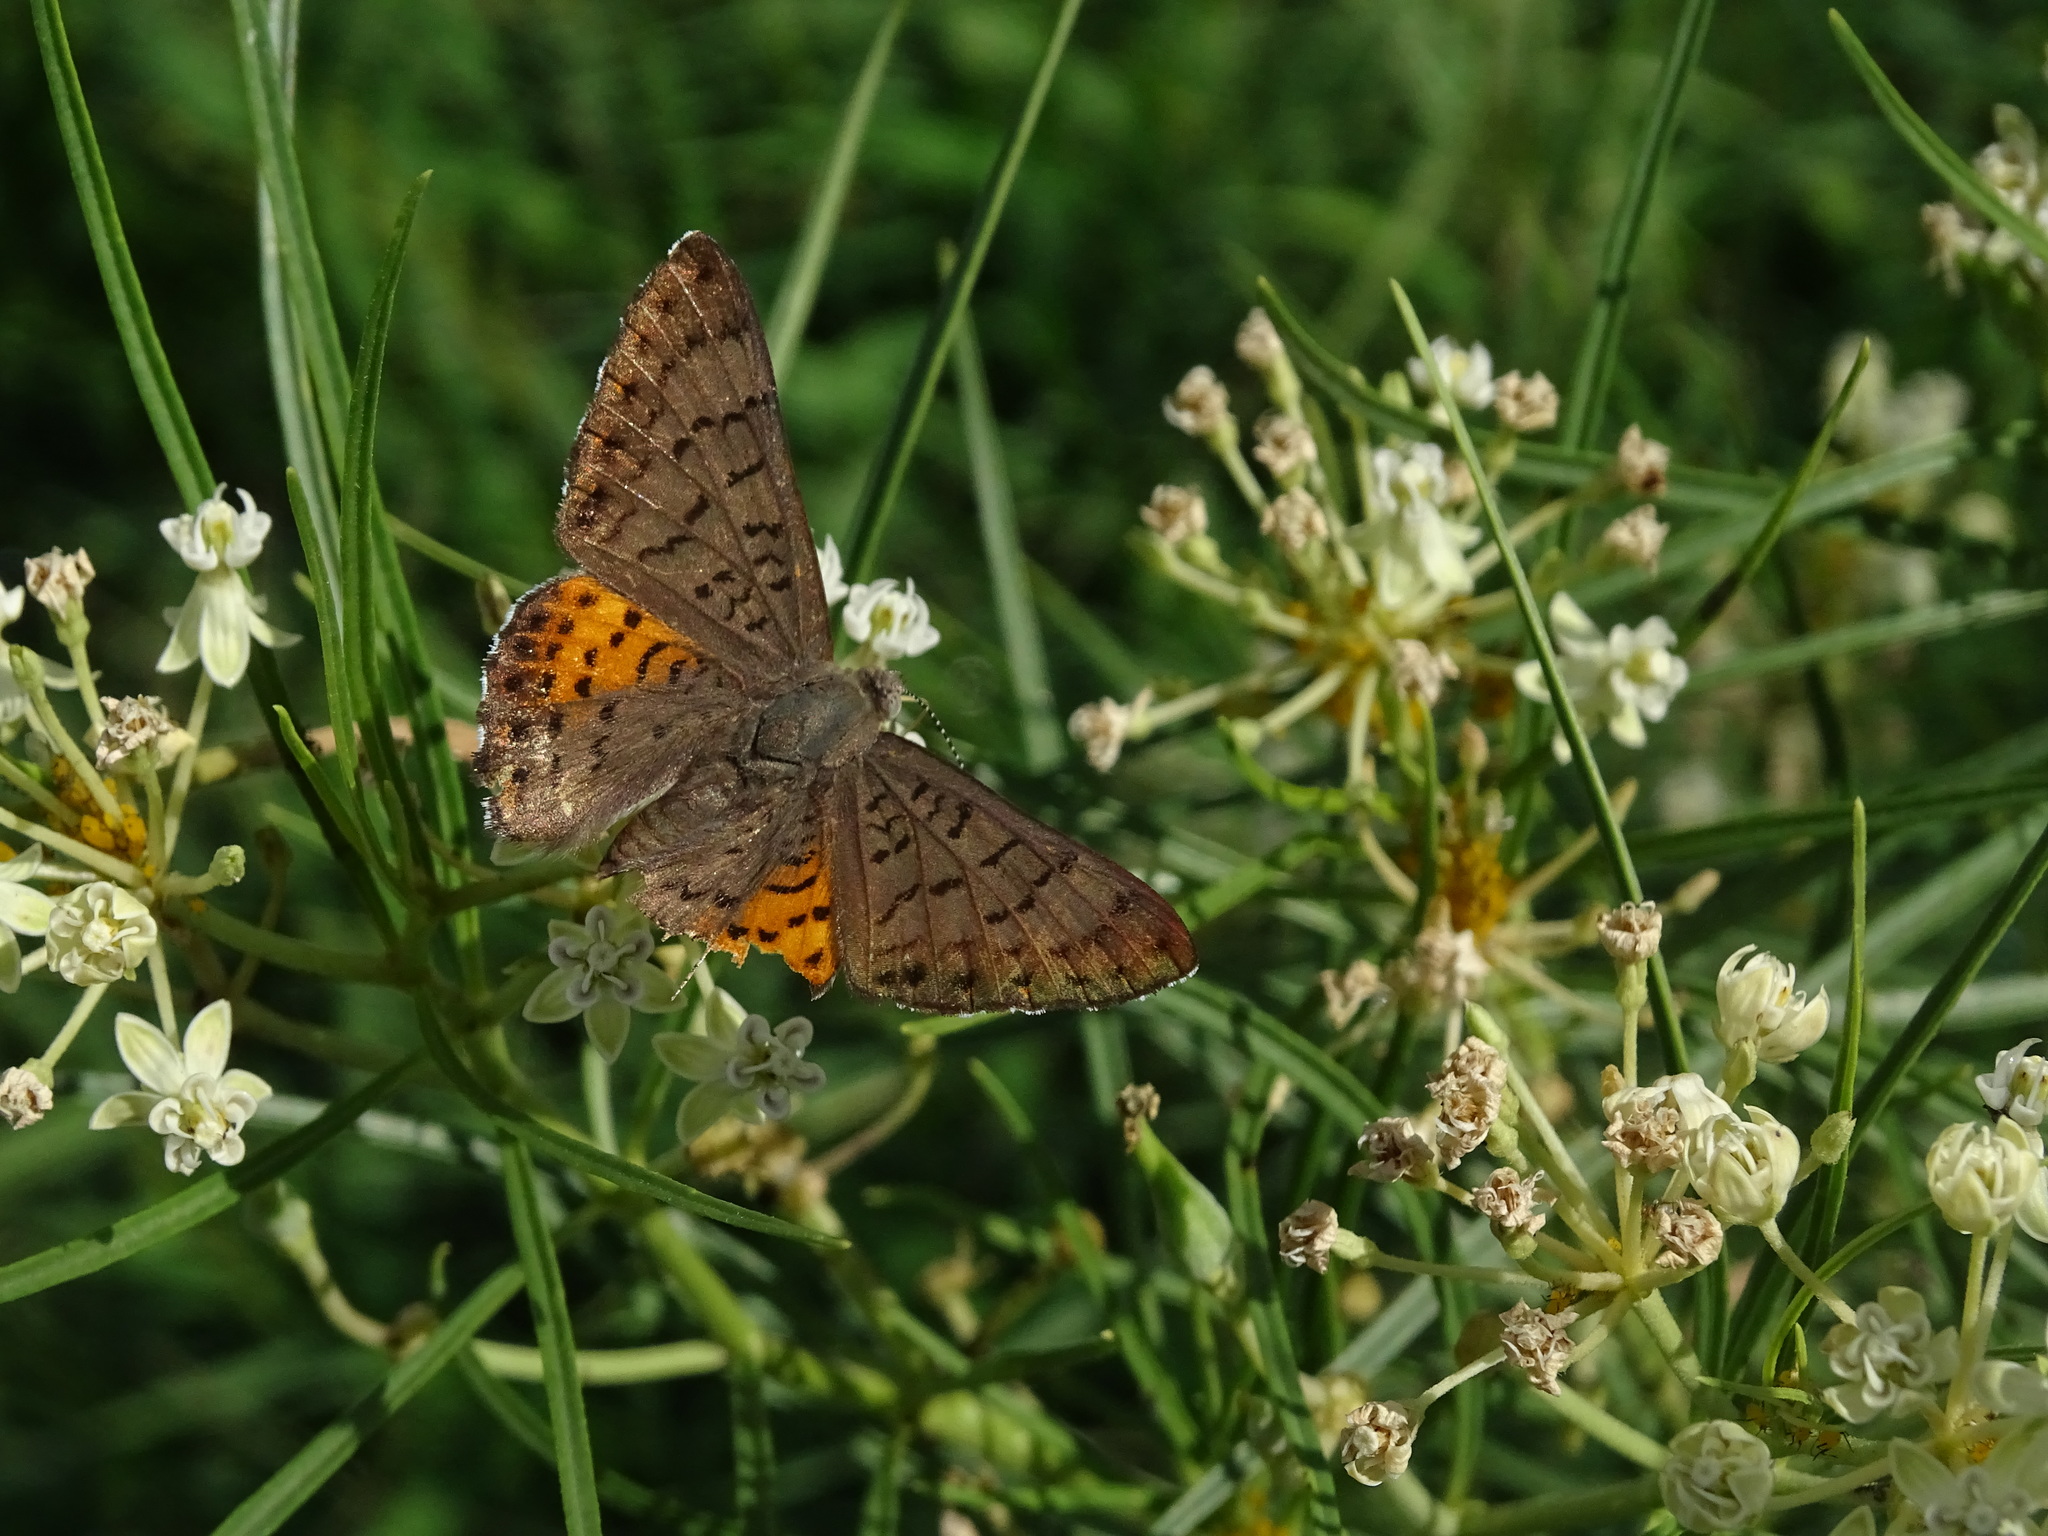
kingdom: Animalia
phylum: Arthropoda
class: Insecta
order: Lepidoptera
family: Riodinidae
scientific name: Riodinidae
